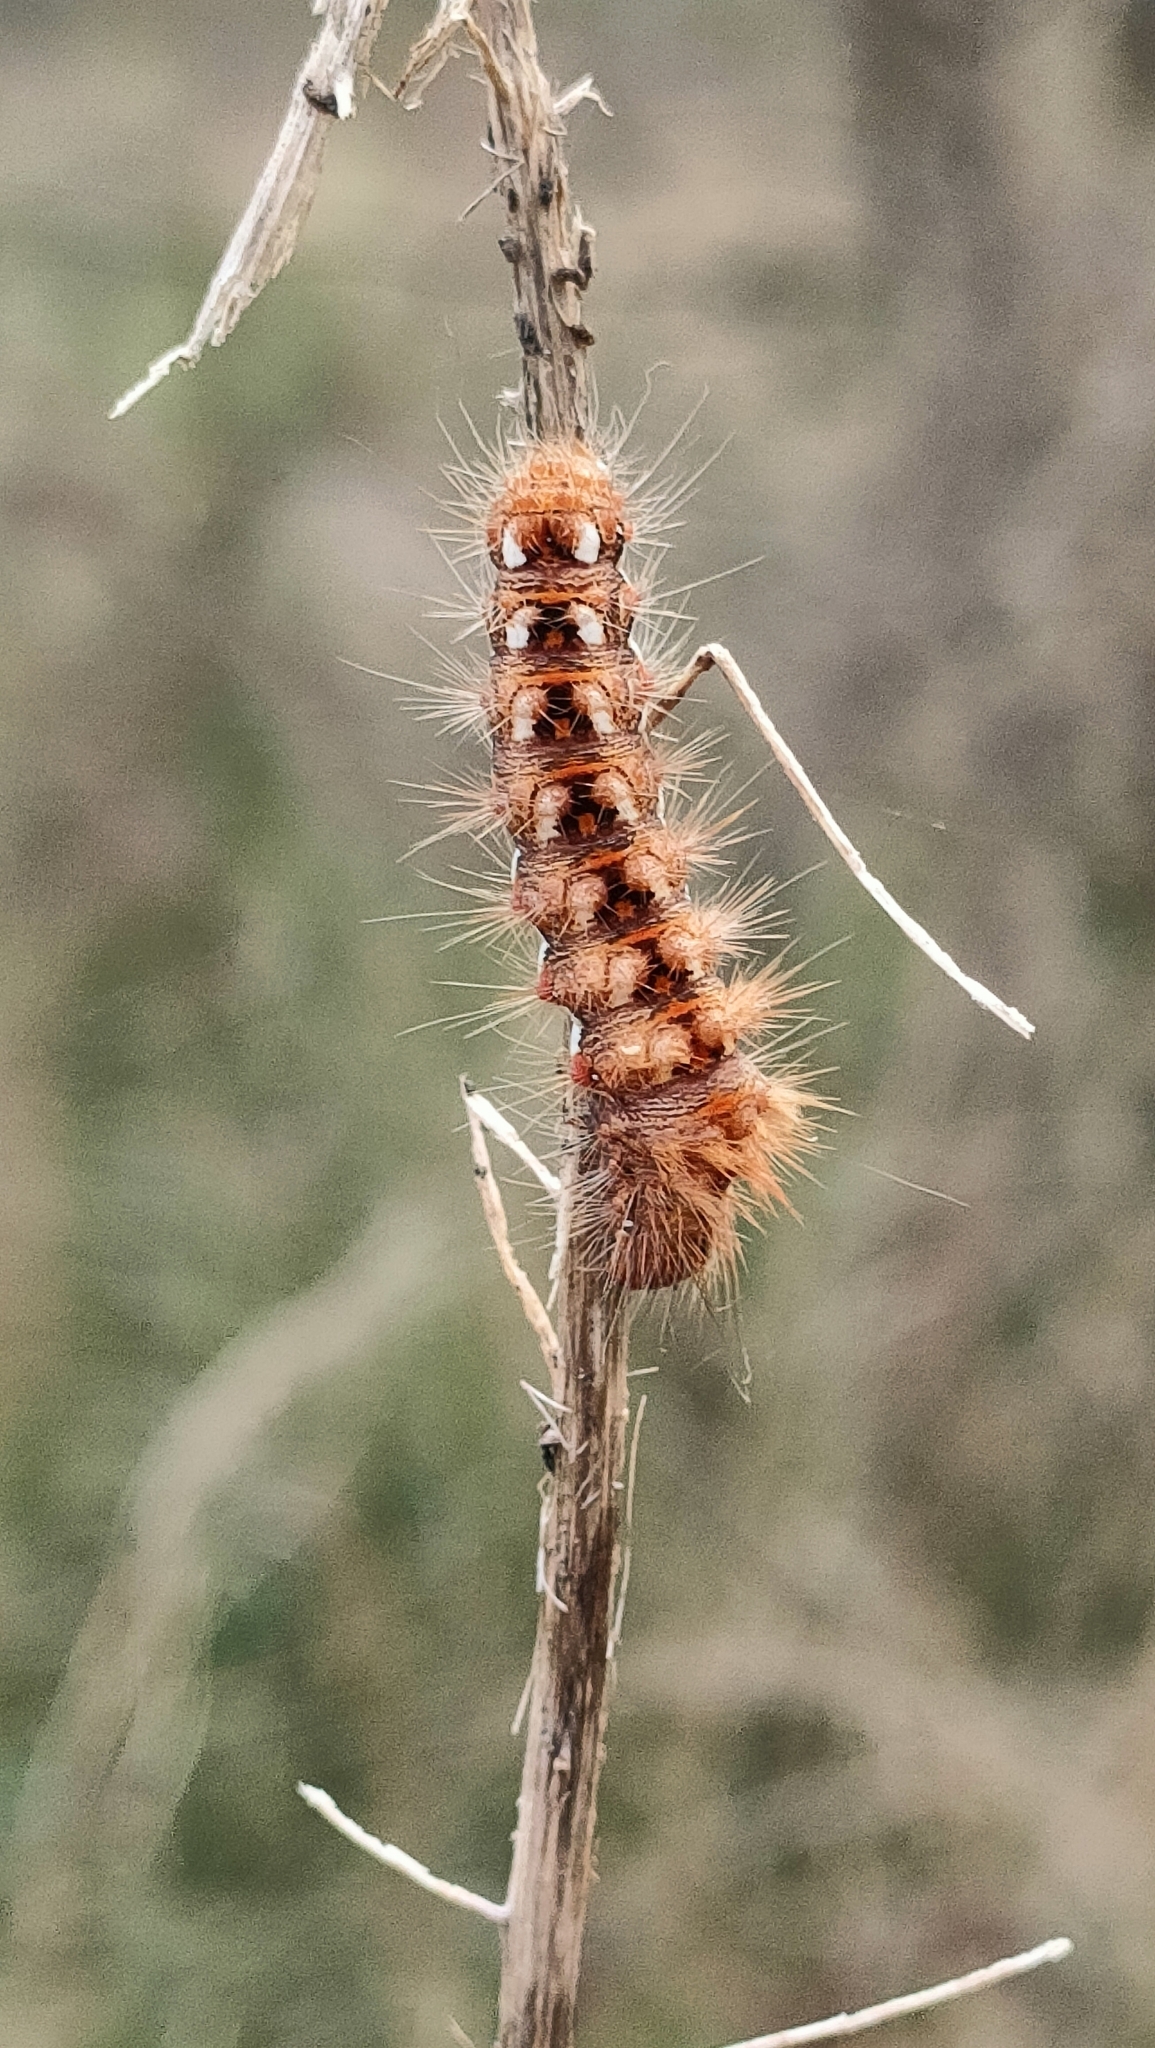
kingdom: Animalia
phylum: Arthropoda
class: Insecta
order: Lepidoptera
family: Noctuidae
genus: Acronicta
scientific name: Acronicta rumicis
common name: Knot grass
